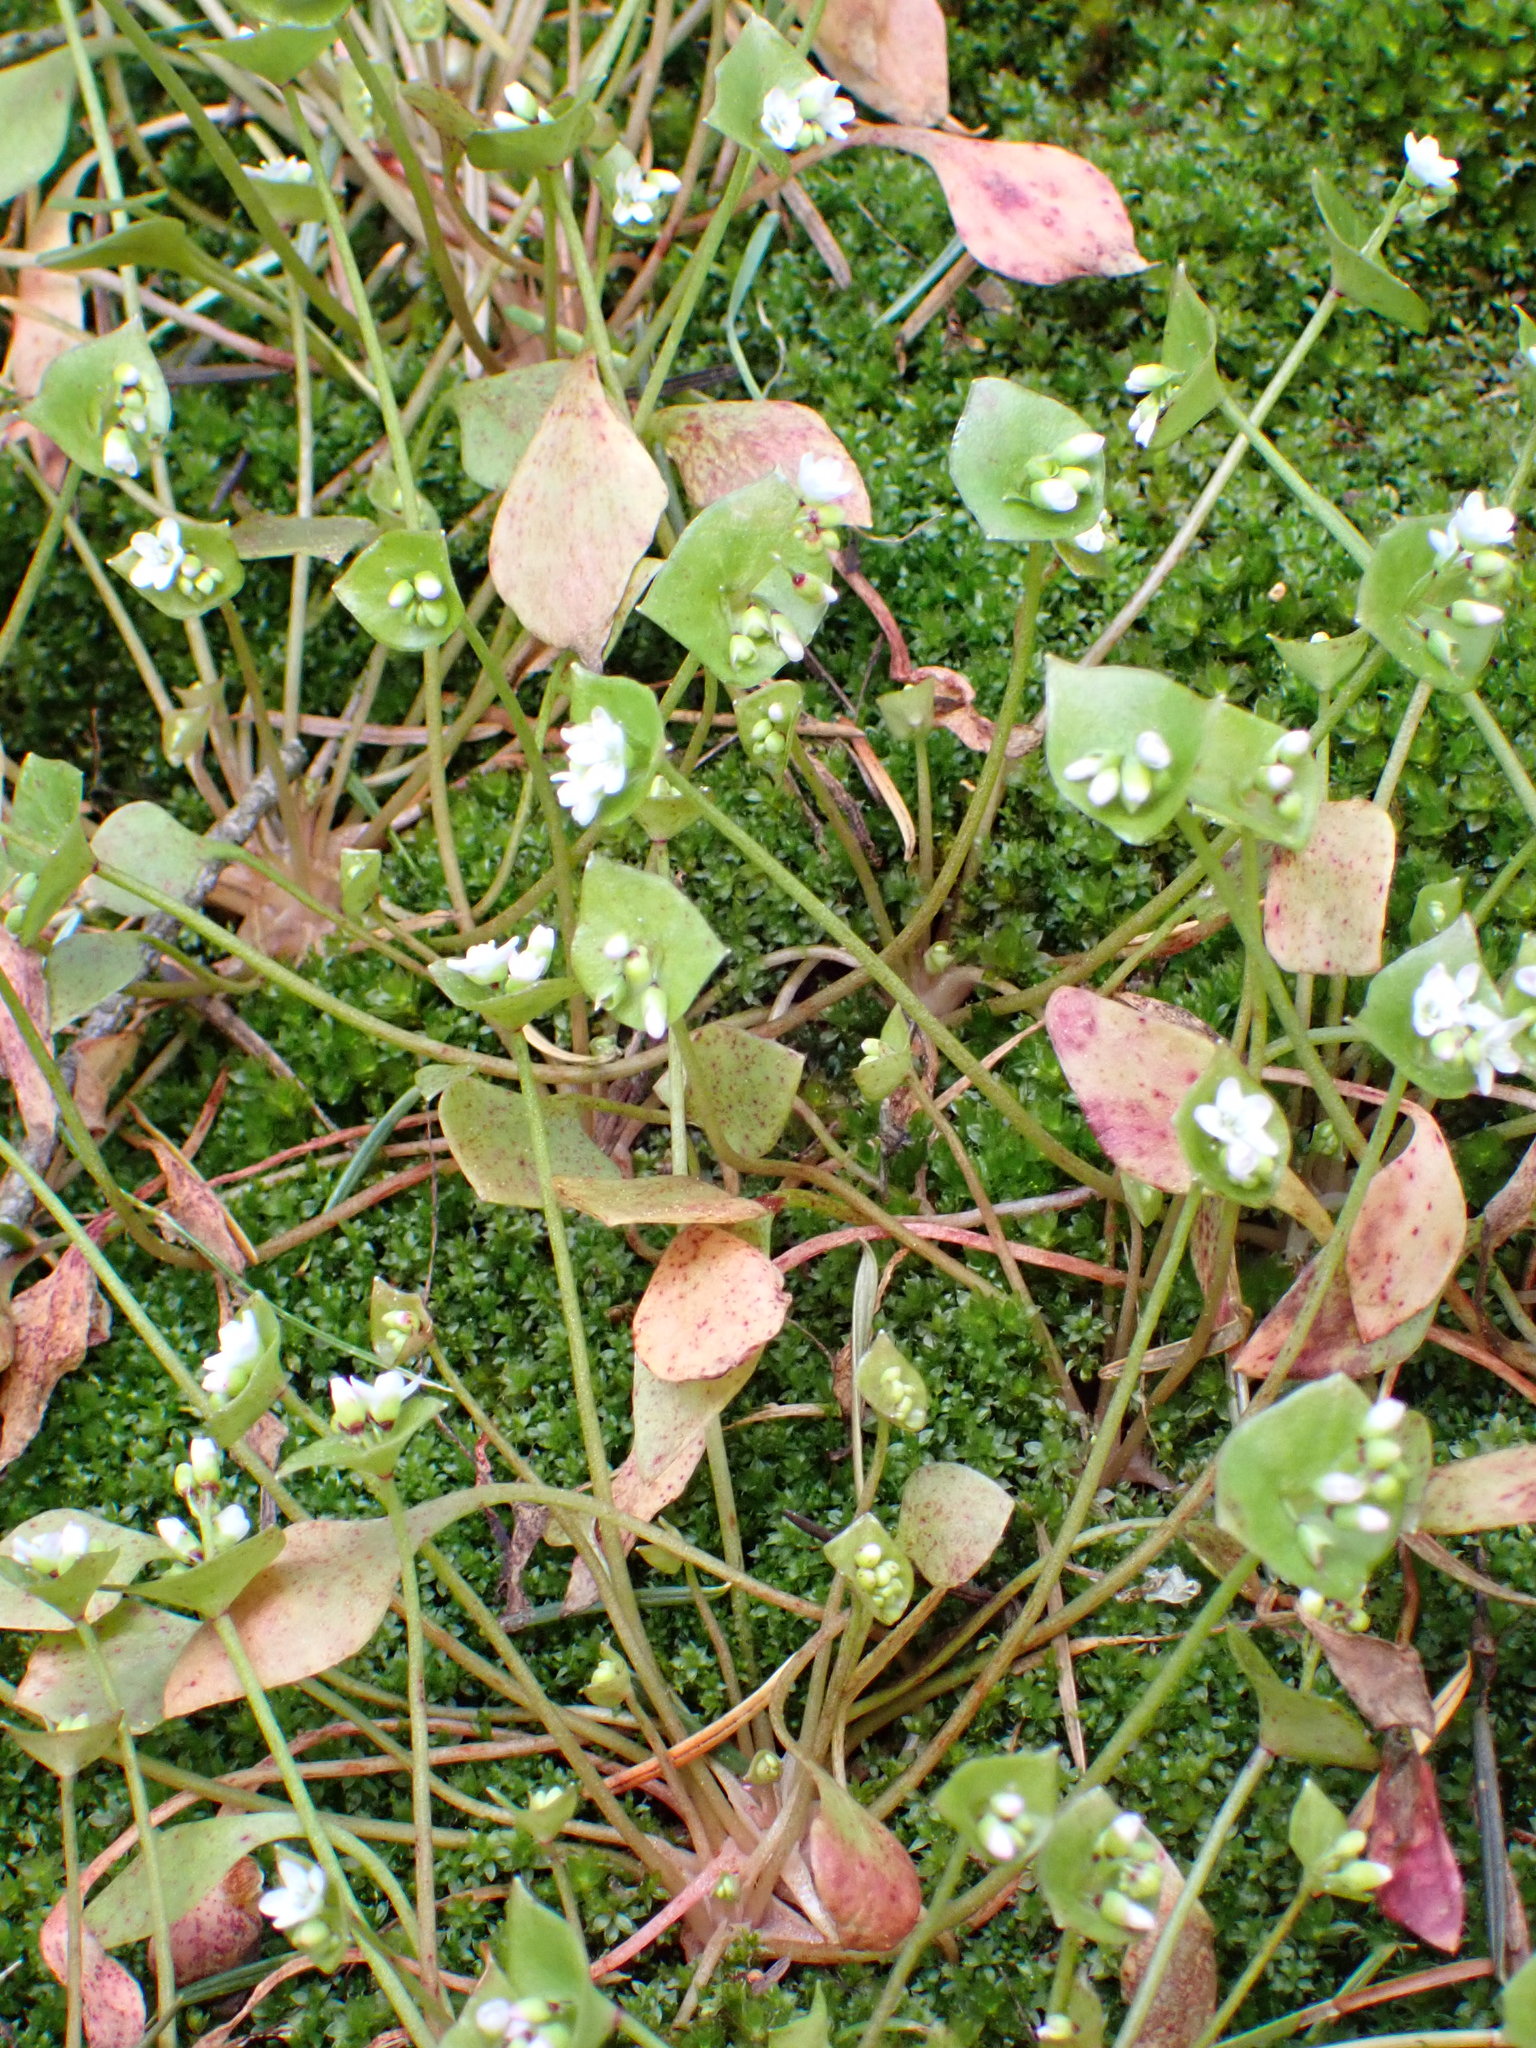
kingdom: Plantae
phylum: Tracheophyta
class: Magnoliopsida
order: Caryophyllales
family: Montiaceae
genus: Claytonia
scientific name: Claytonia perfoliata
